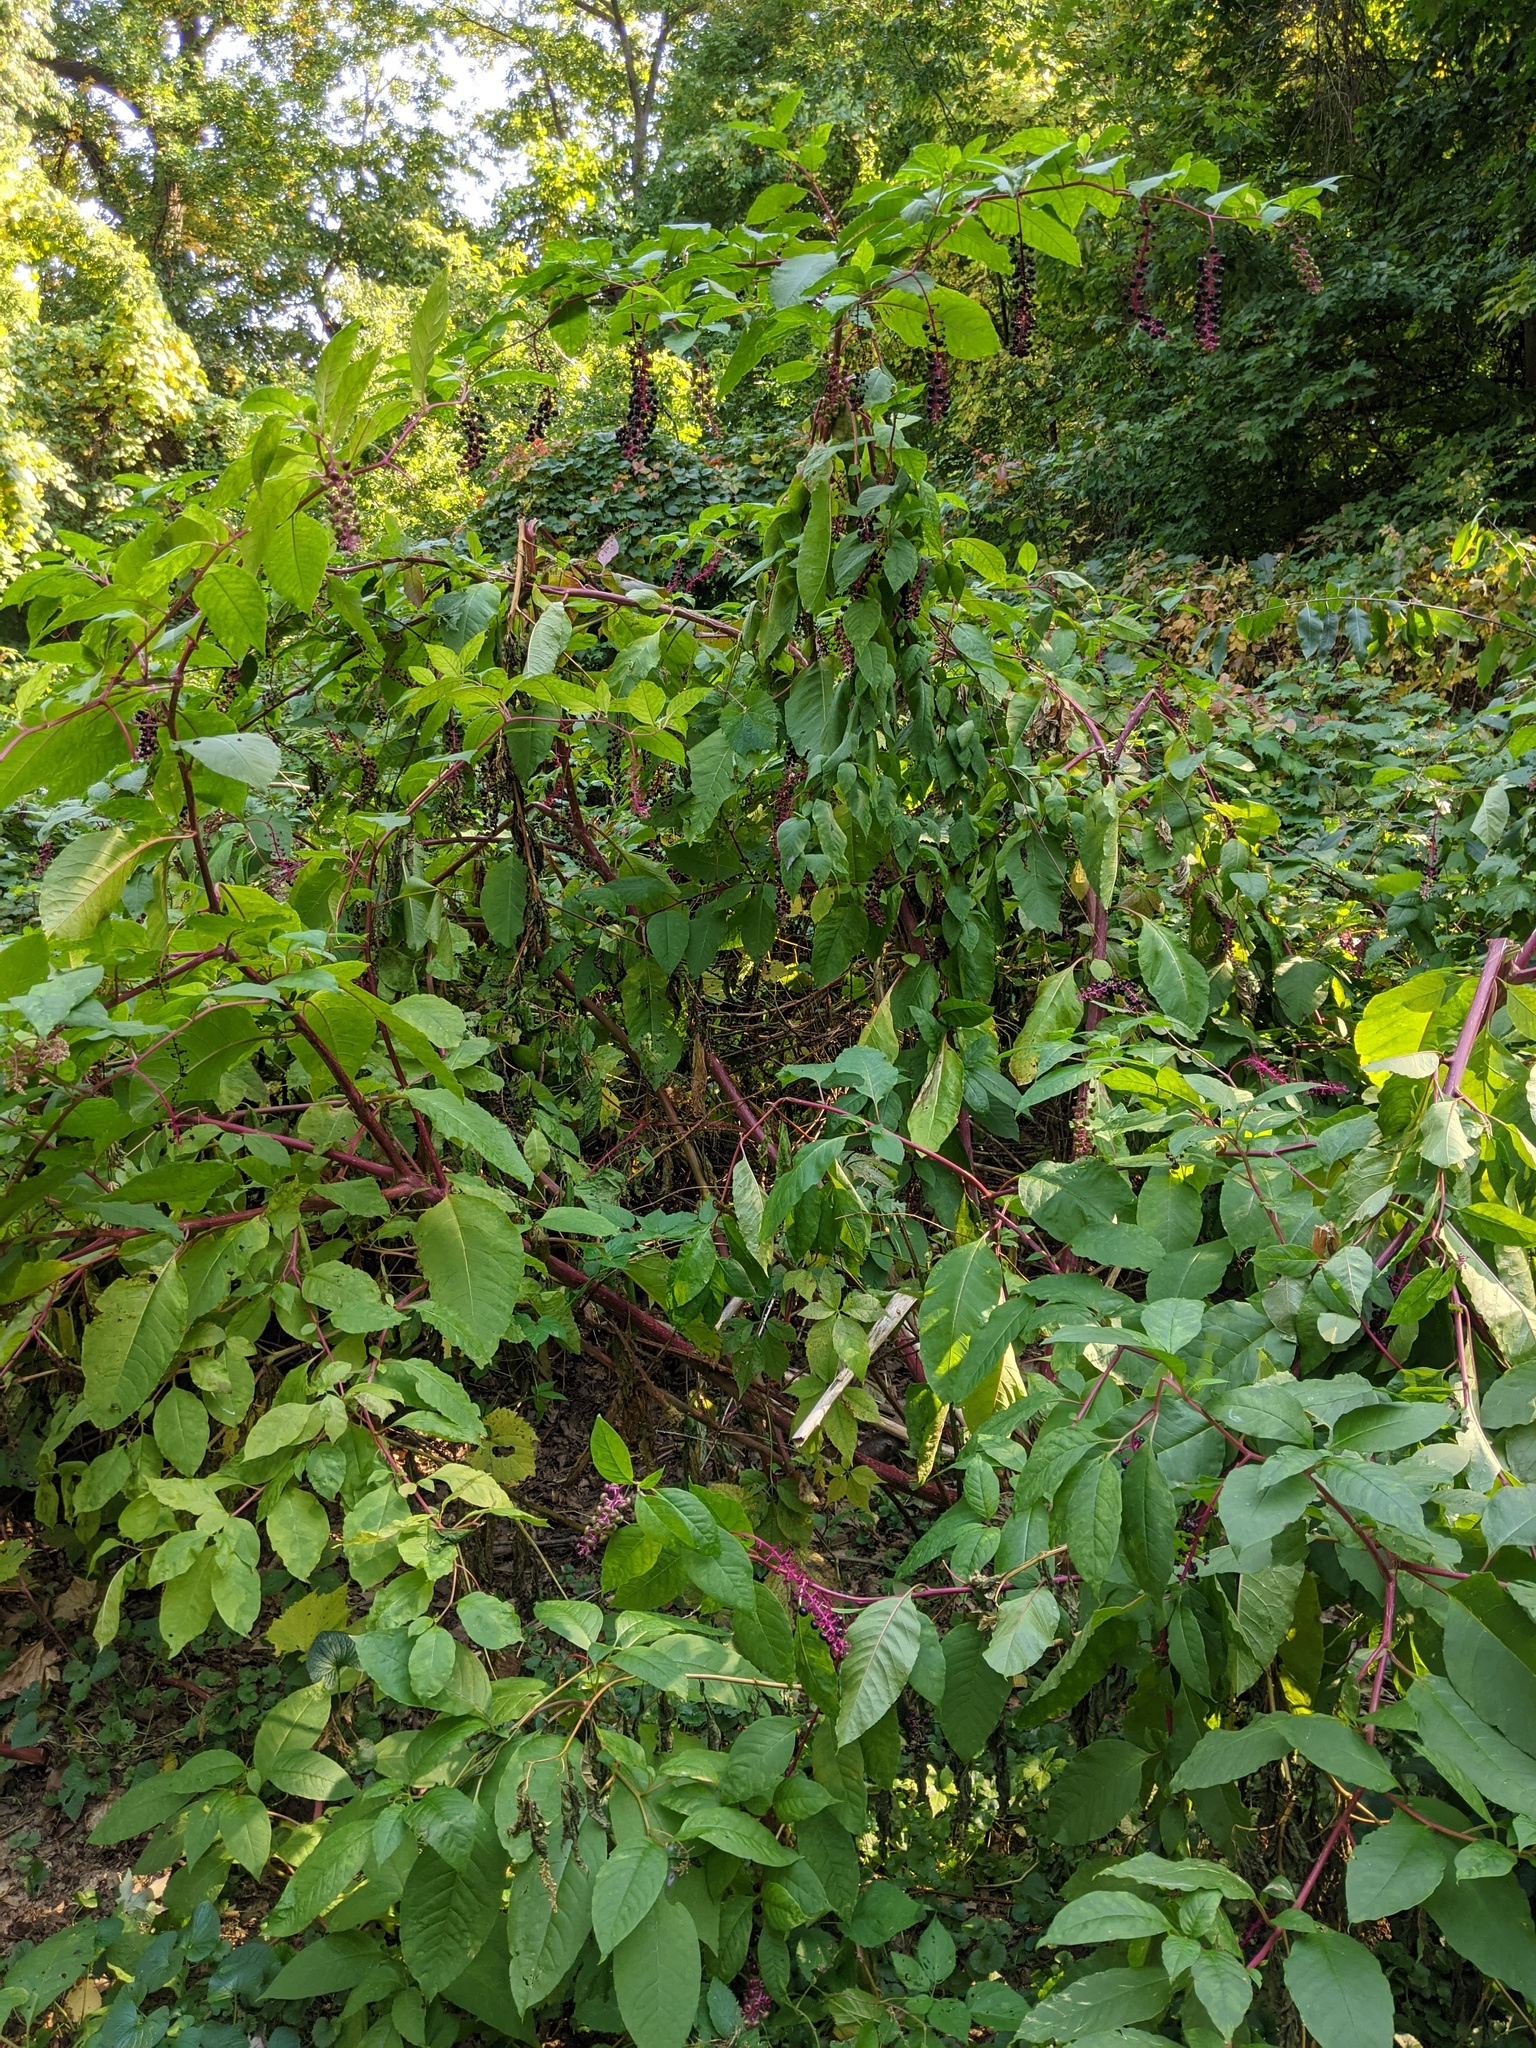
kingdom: Plantae
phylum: Tracheophyta
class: Magnoliopsida
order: Caryophyllales
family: Phytolaccaceae
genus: Phytolacca
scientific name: Phytolacca americana
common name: American pokeweed
